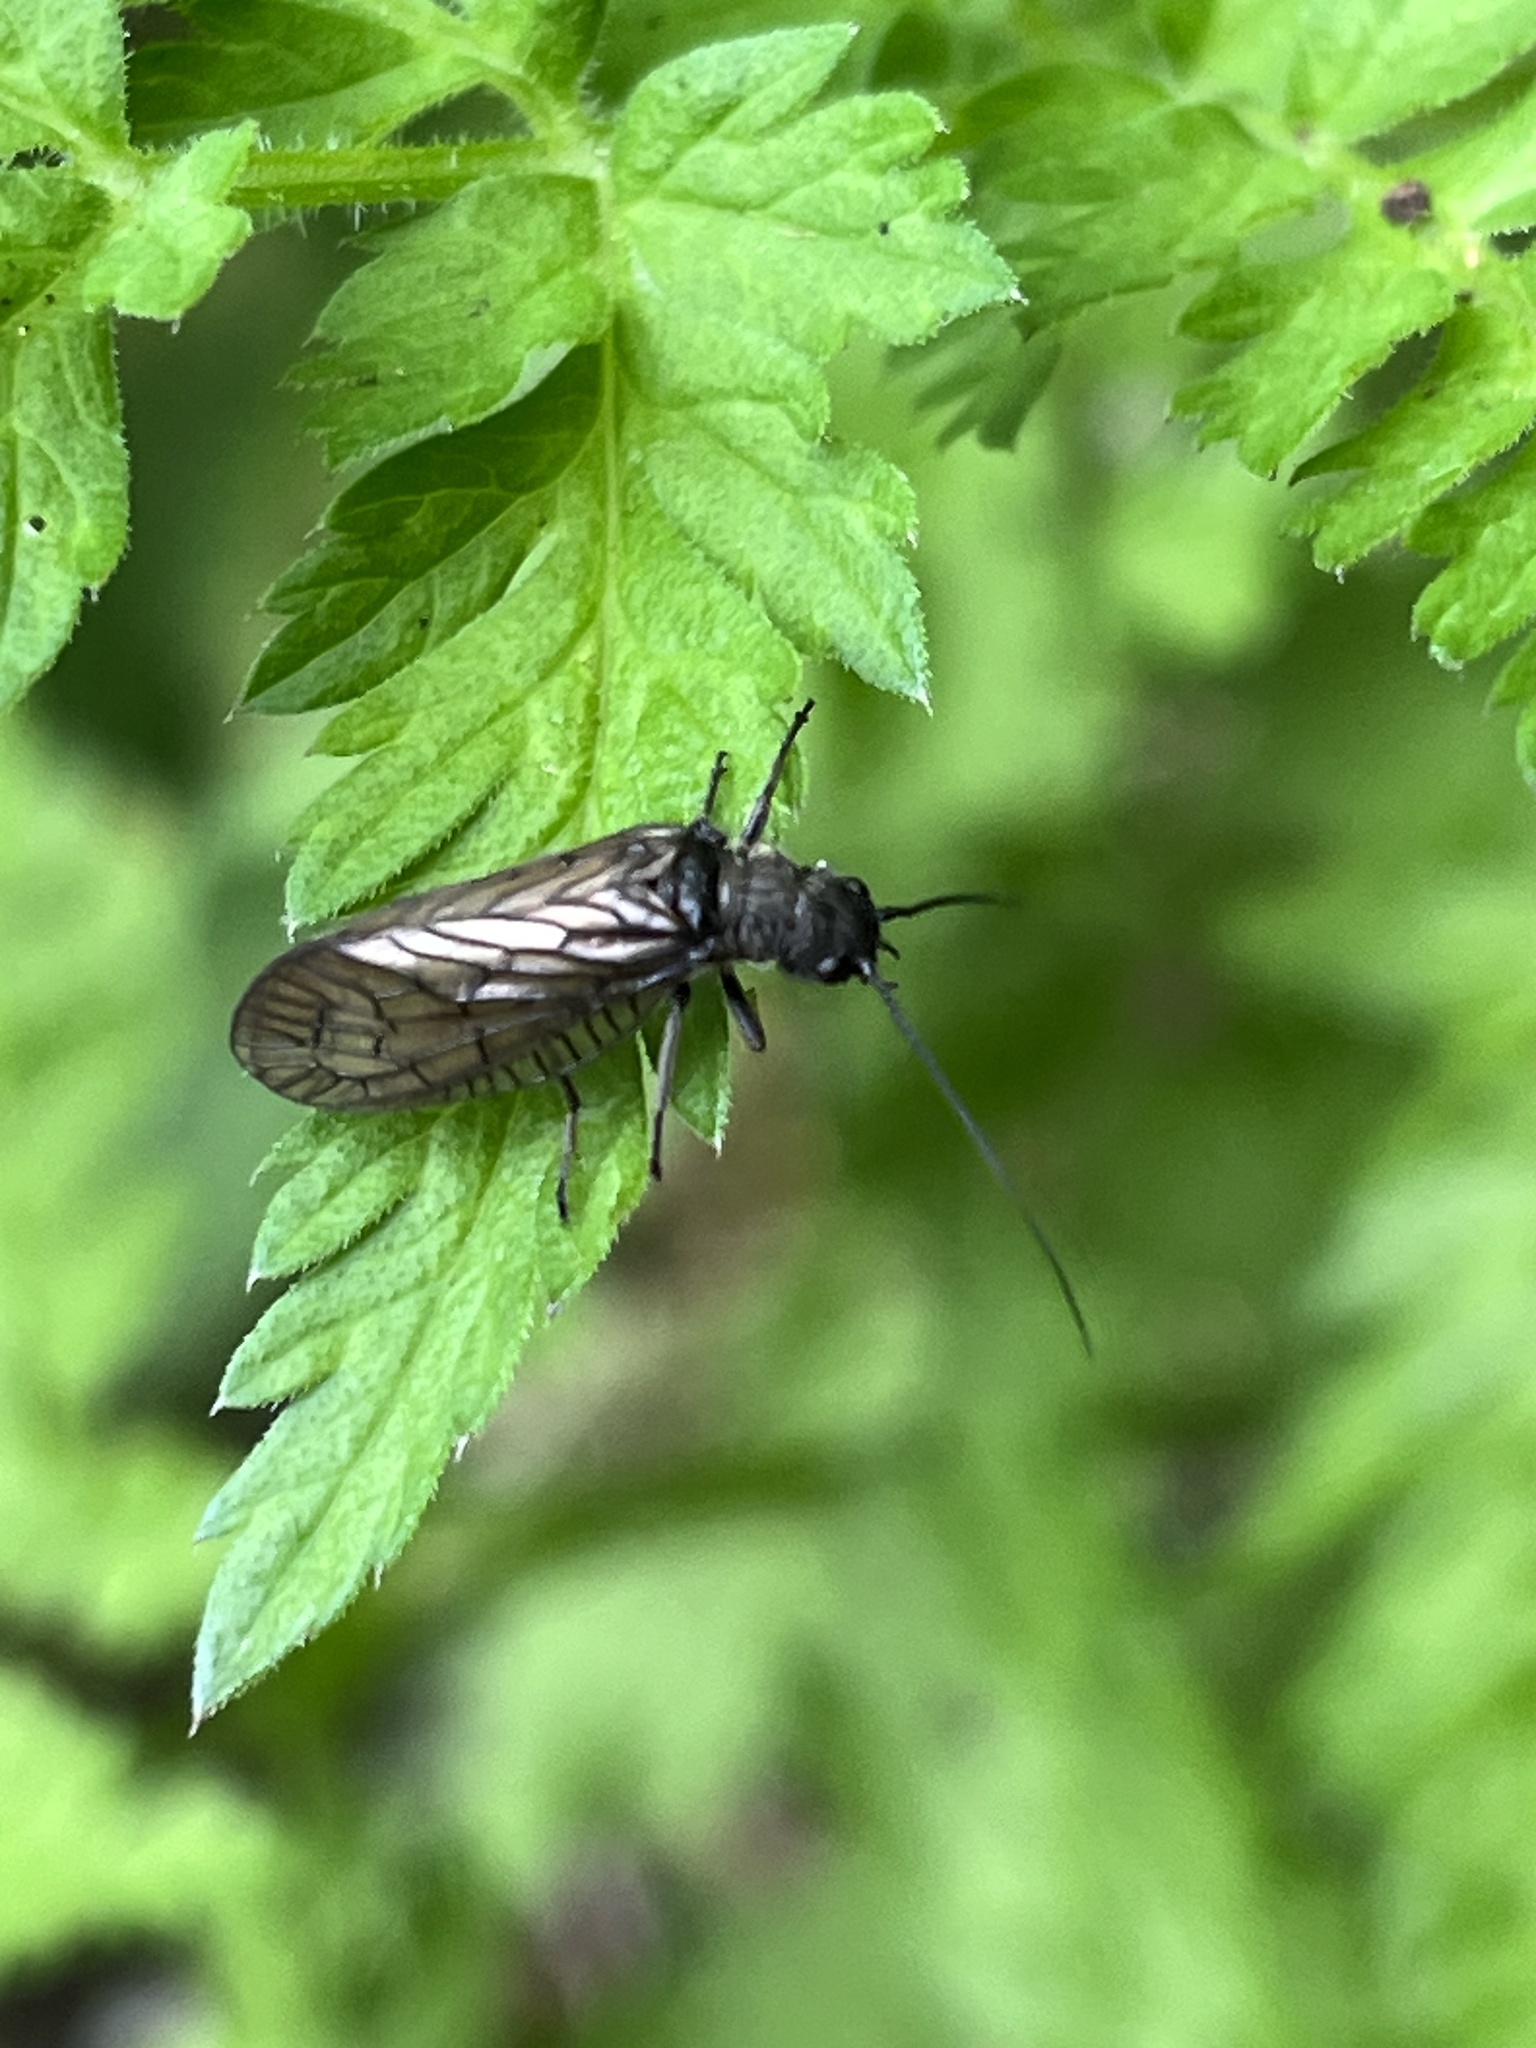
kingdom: Animalia
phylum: Arthropoda
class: Insecta
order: Megaloptera
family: Sialidae
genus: Sialis
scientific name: Sialis
